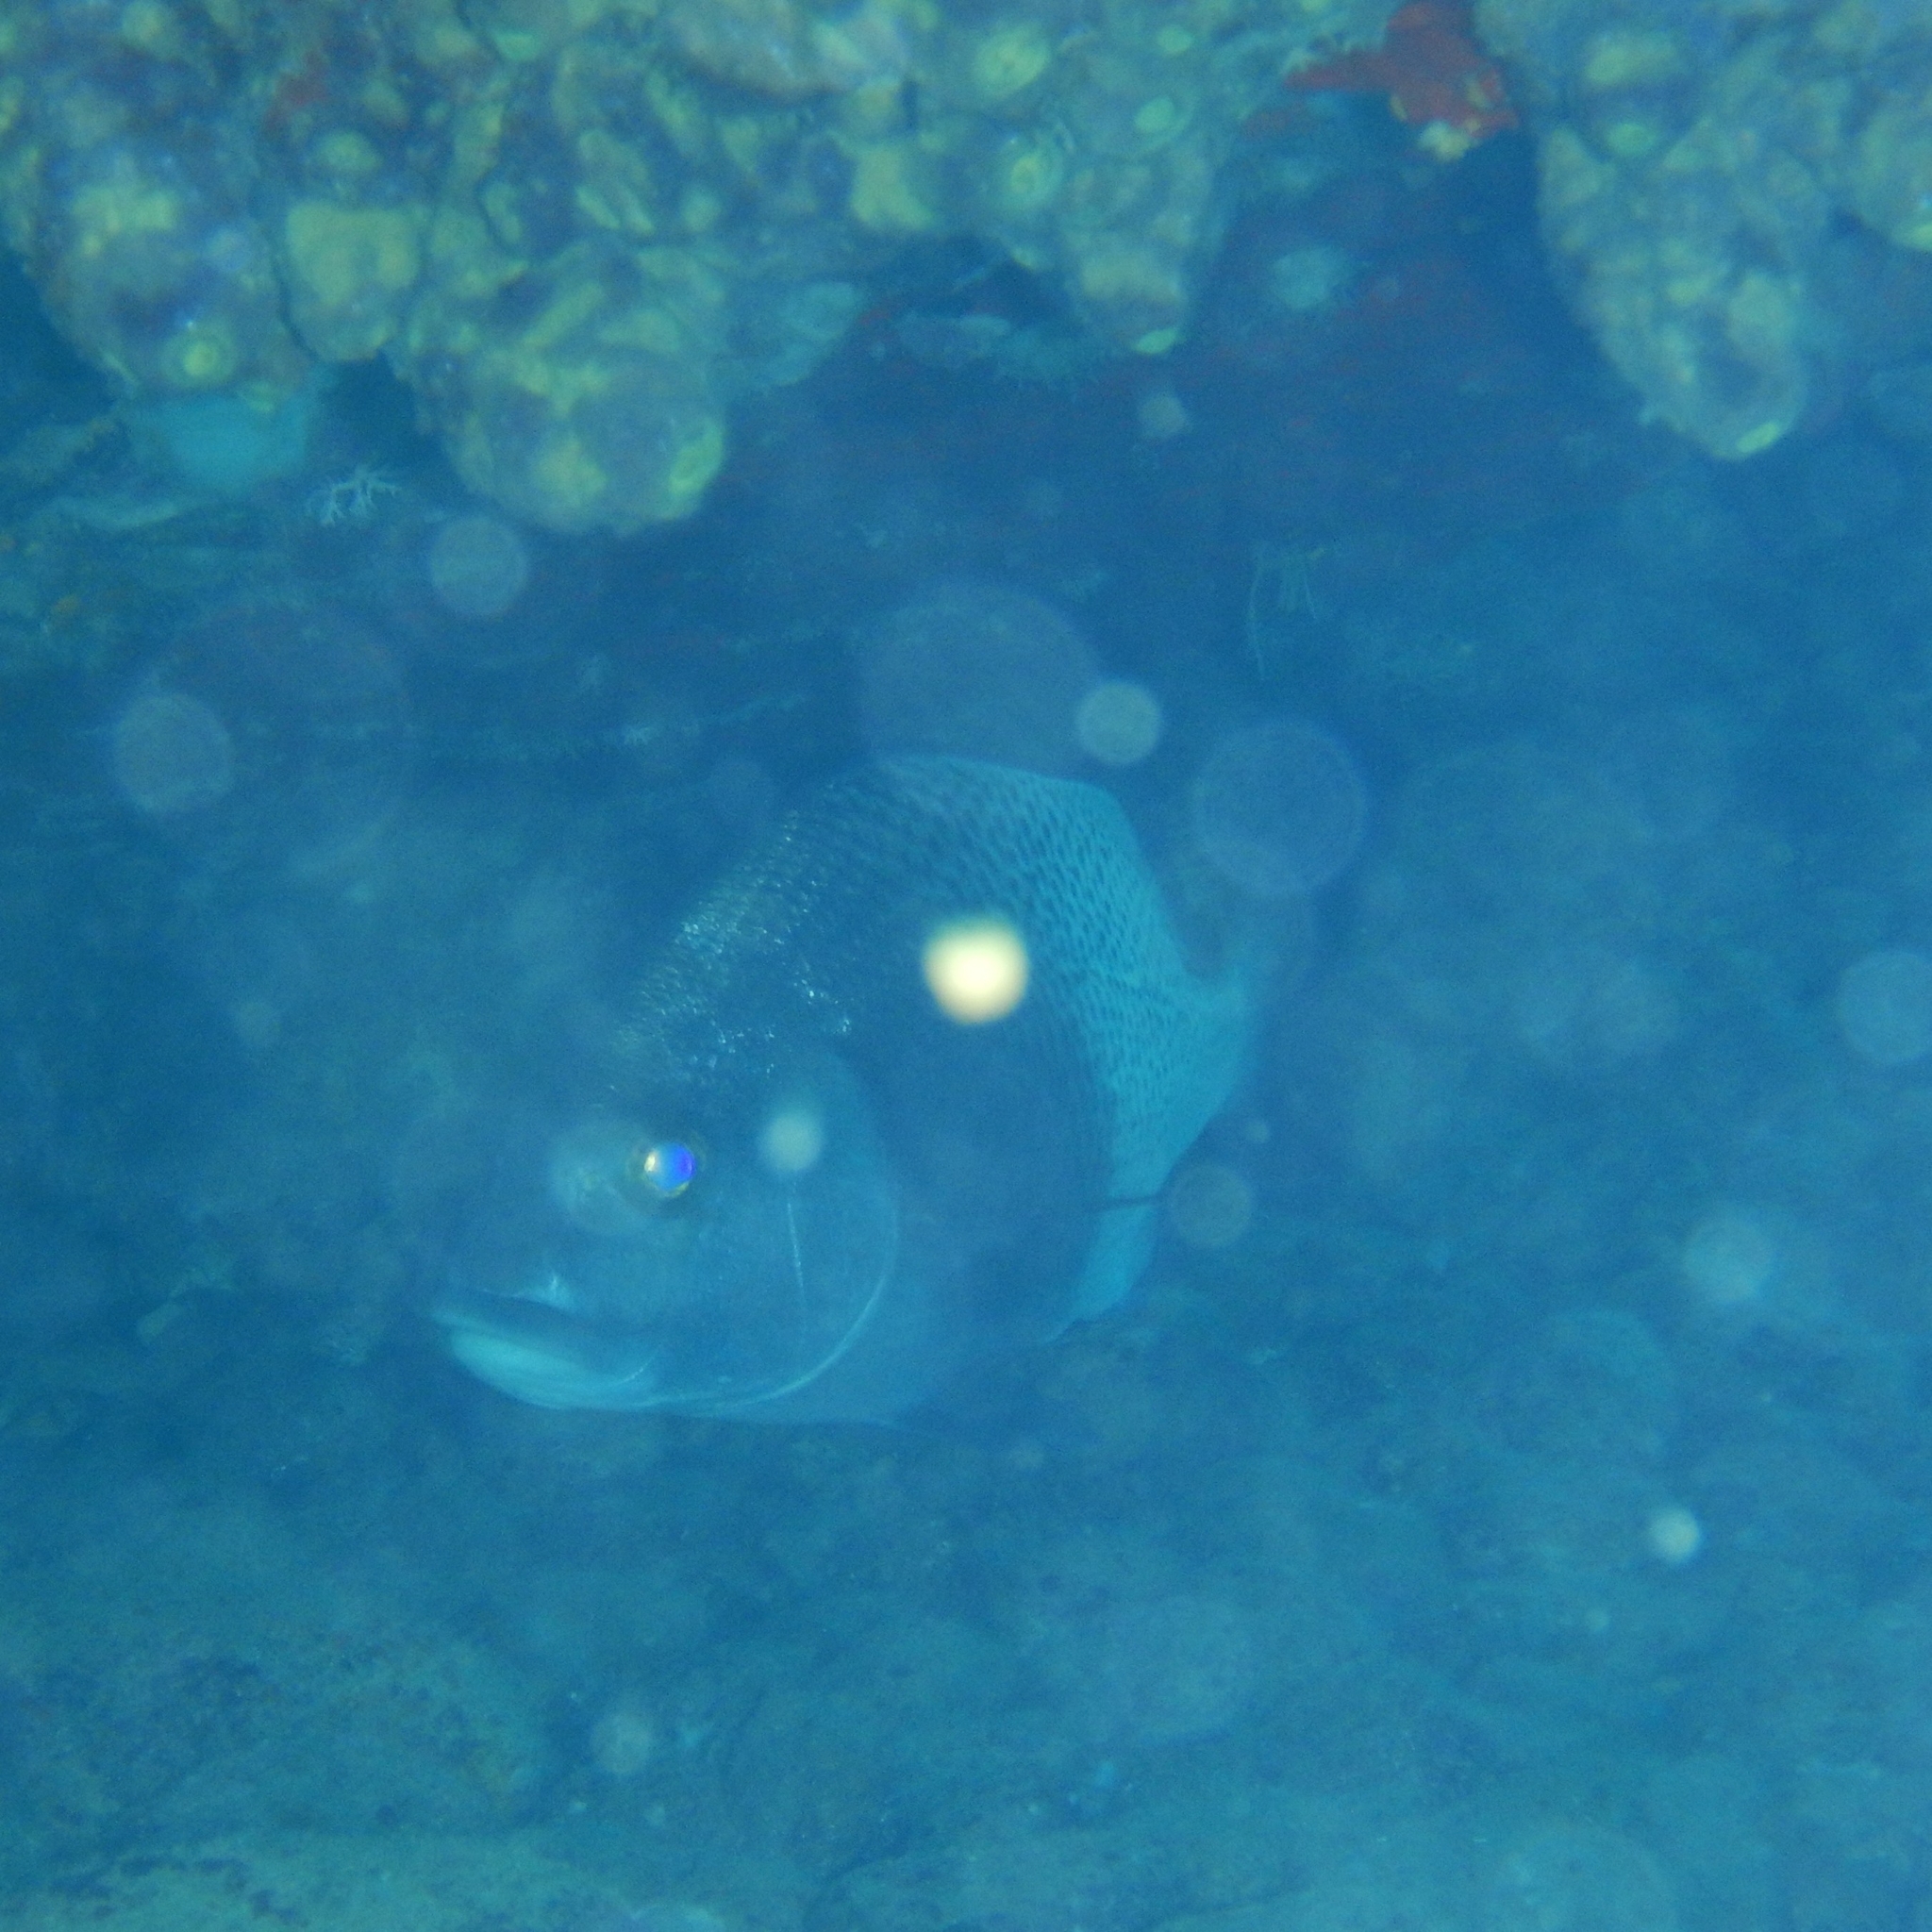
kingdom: Animalia
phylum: Chordata
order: Perciformes
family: Haemulidae
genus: Anisotremus
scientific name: Anisotremus surinamensis
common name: Black margate
